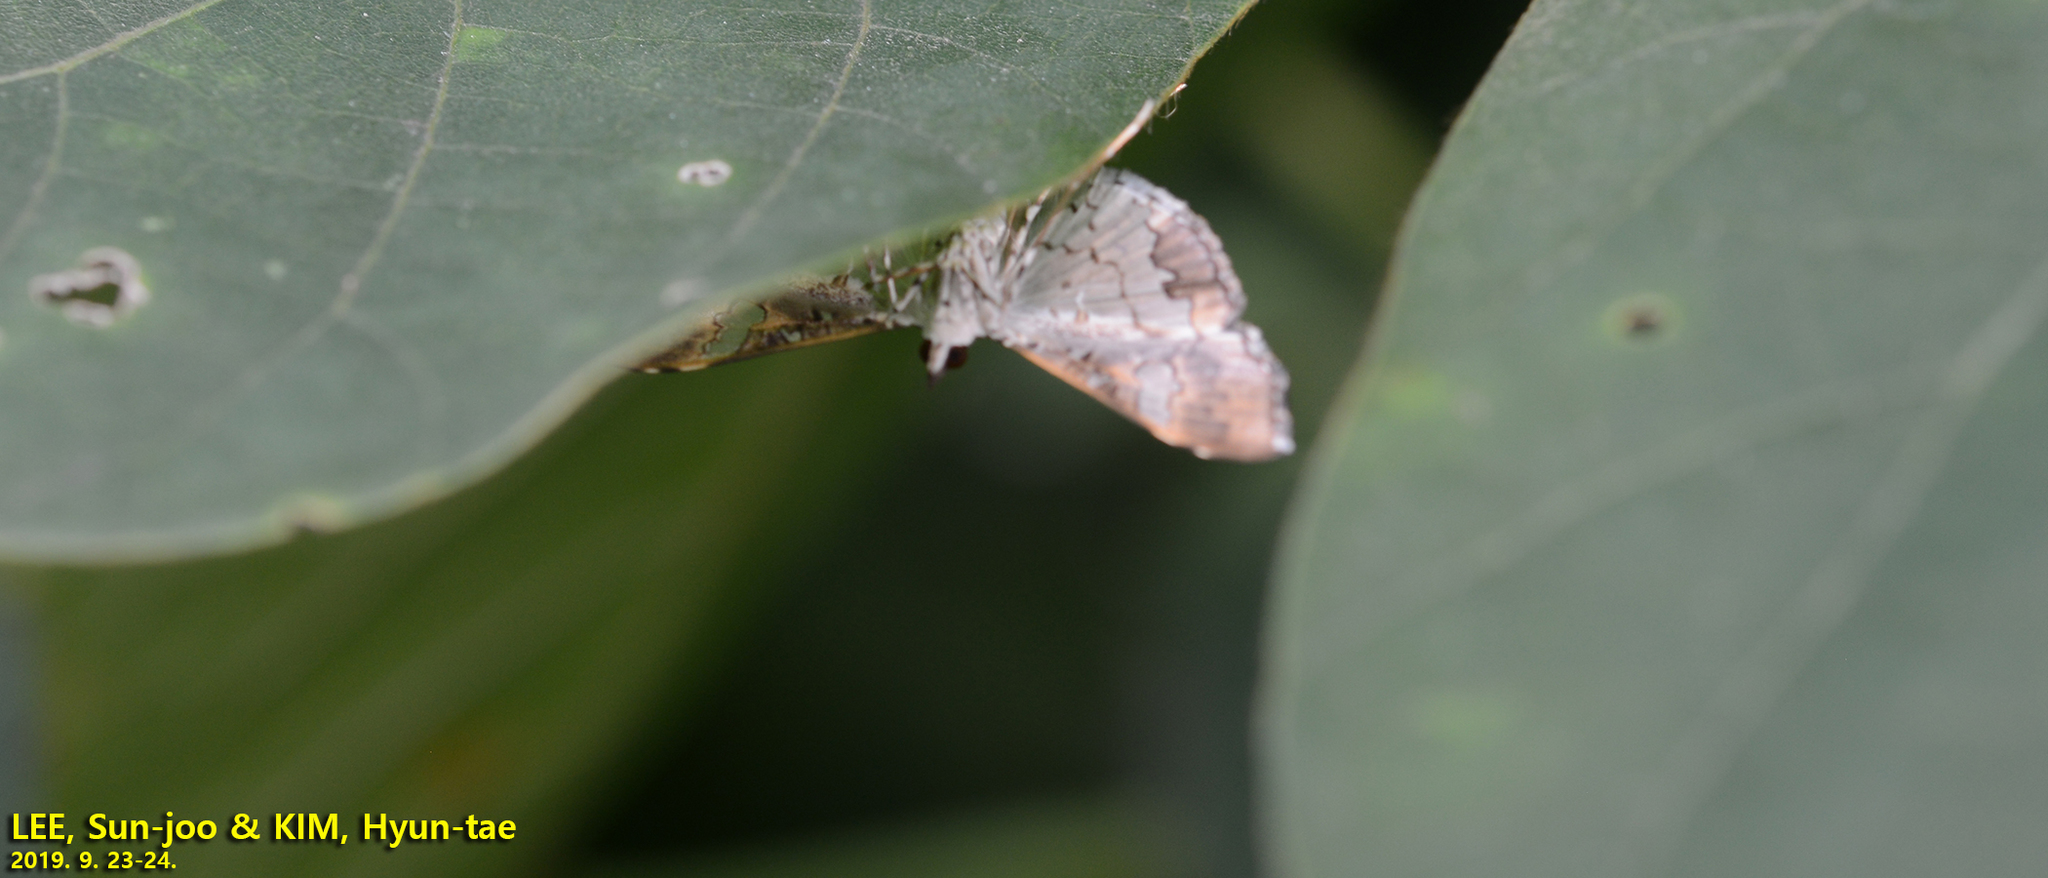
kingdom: Animalia
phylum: Arthropoda
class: Insecta
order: Lepidoptera
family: Crambidae
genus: Maruca
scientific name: Maruca vitrata
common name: Maruca pod borer
